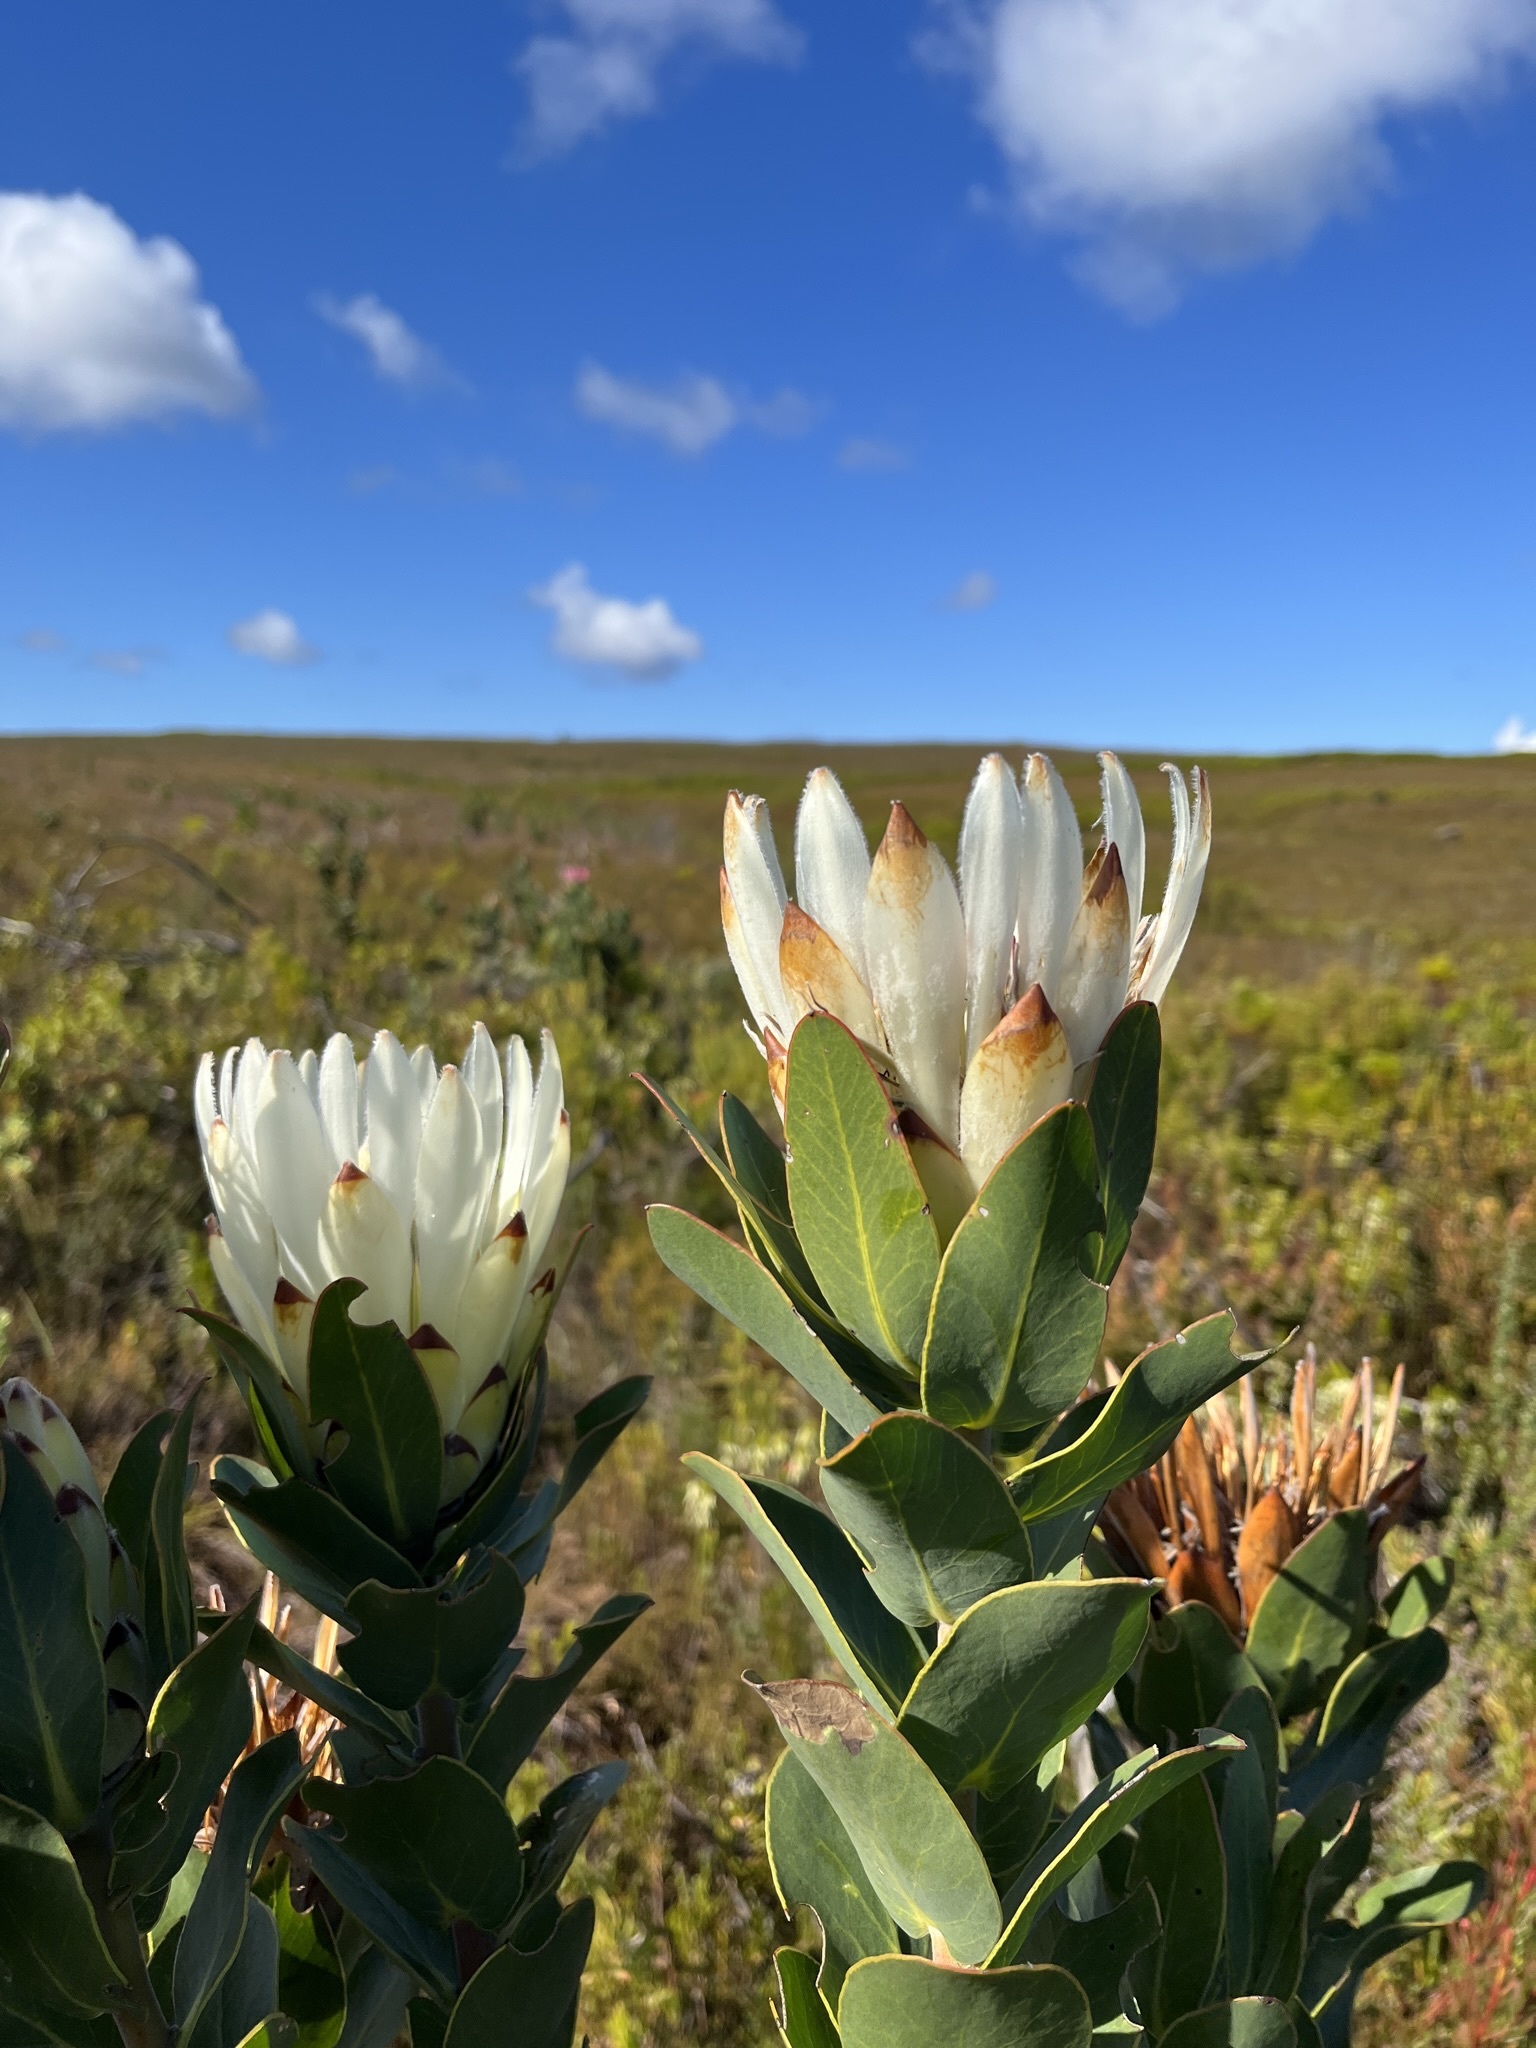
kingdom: Plantae
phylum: Tracheophyta
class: Magnoliopsida
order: Proteales
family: Proteaceae
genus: Protea
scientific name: Protea compacta
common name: Bot river protea
